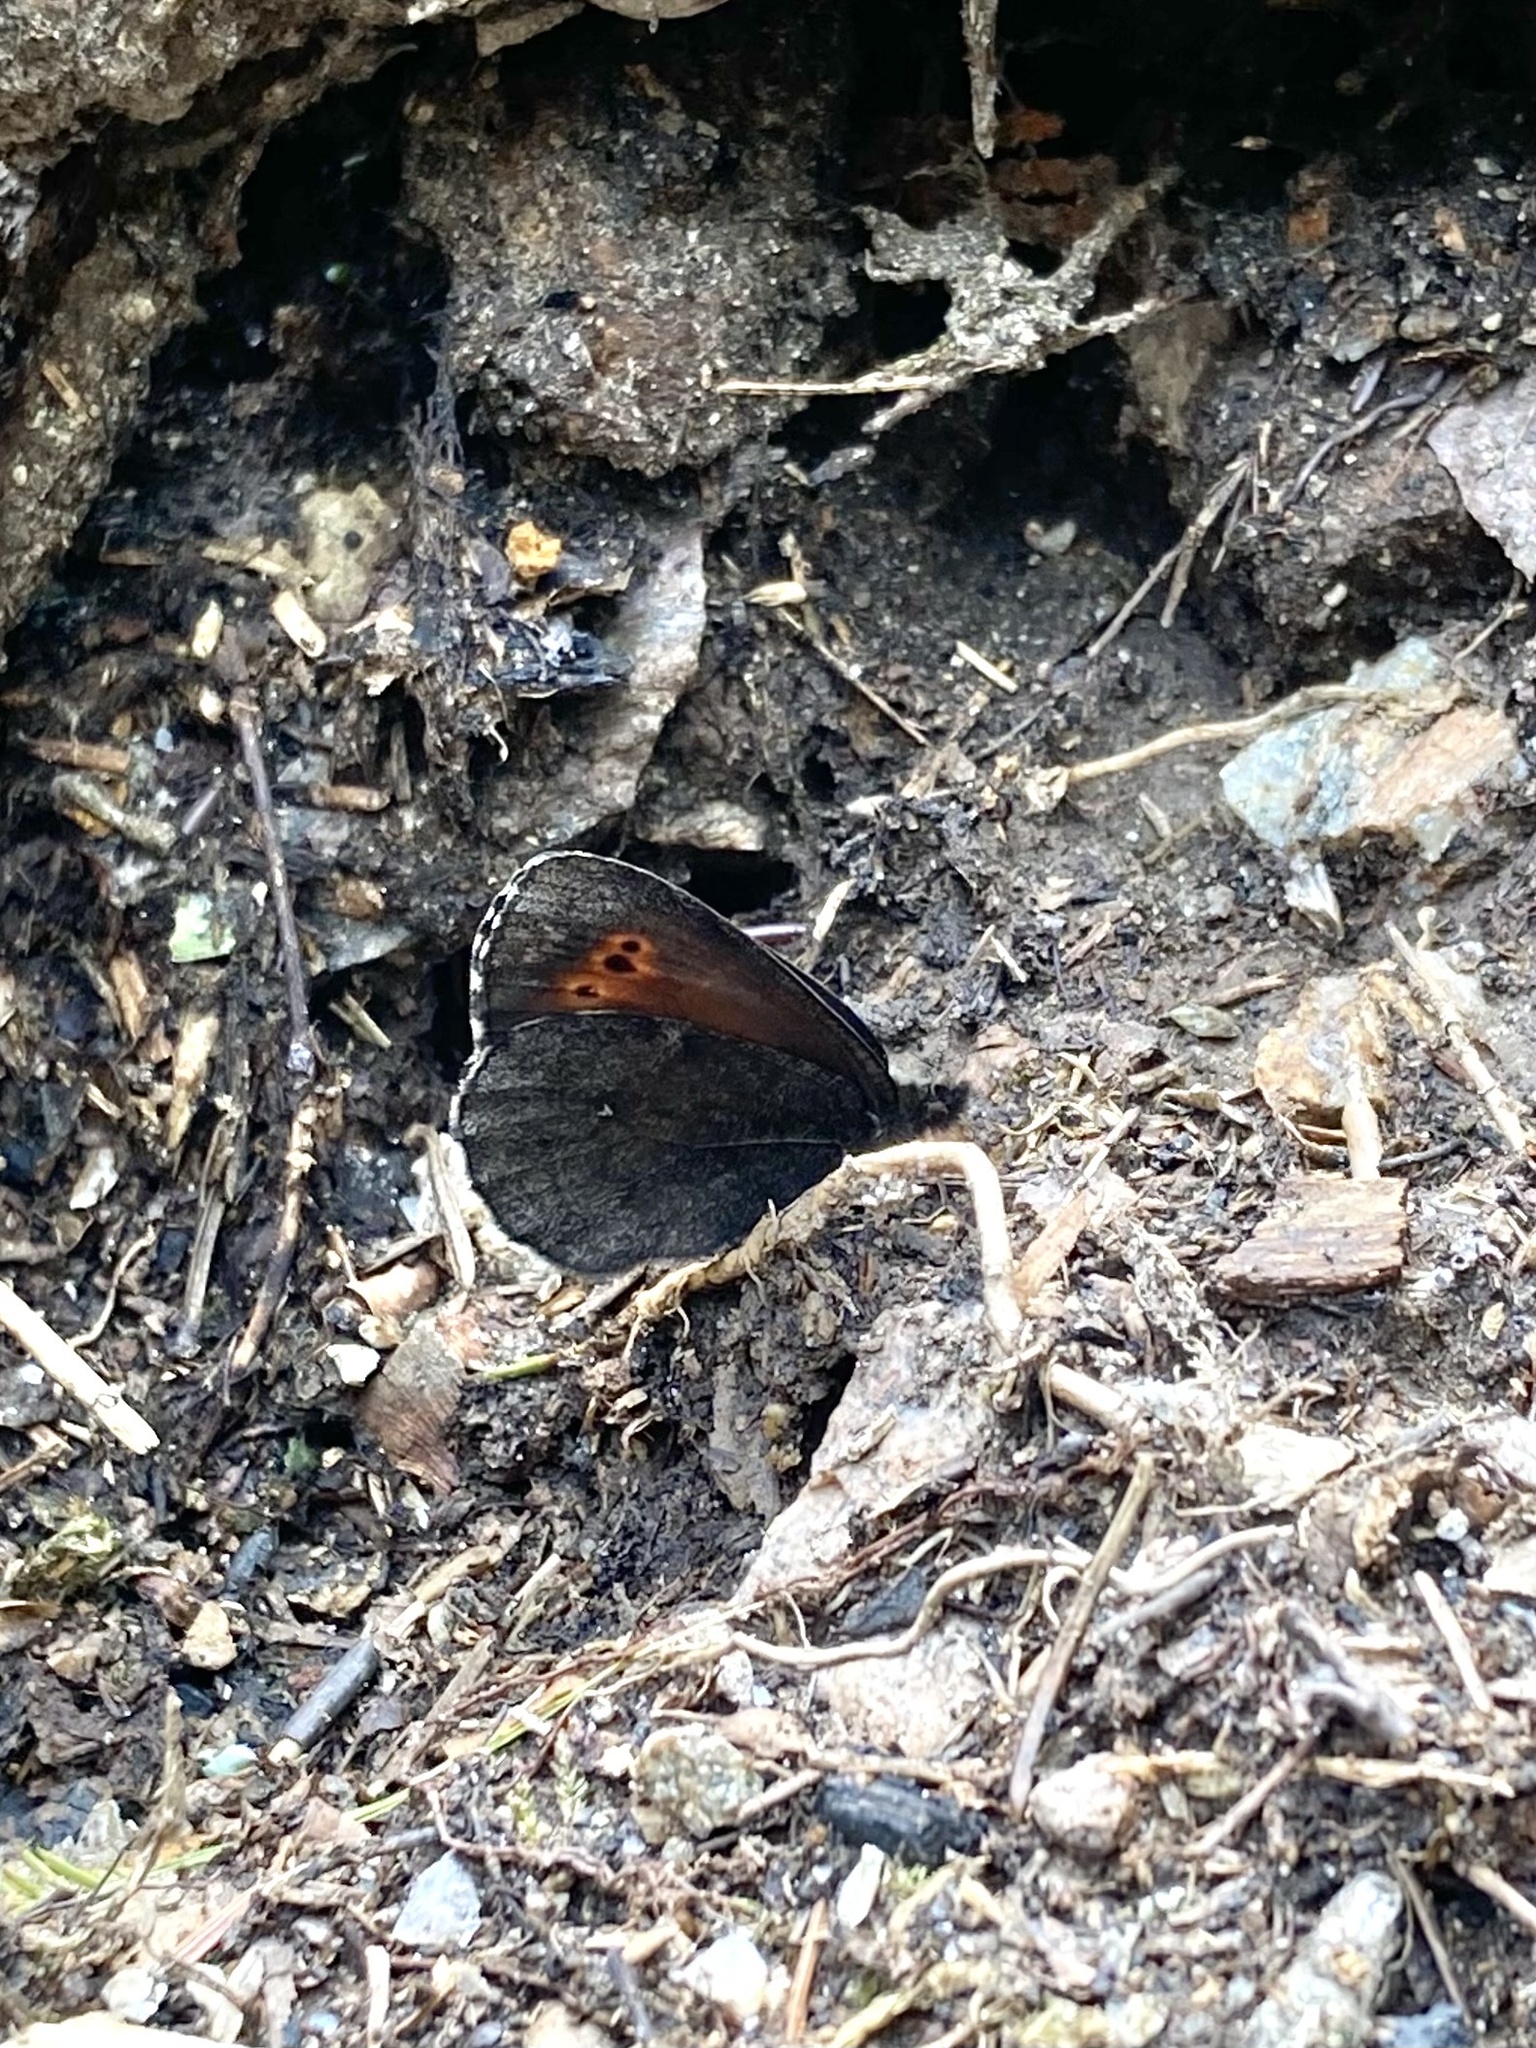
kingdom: Animalia
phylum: Arthropoda
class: Insecta
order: Lepidoptera
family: Nymphalidae
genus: Erebia
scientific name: Erebia disa
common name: Arctic ringlet
